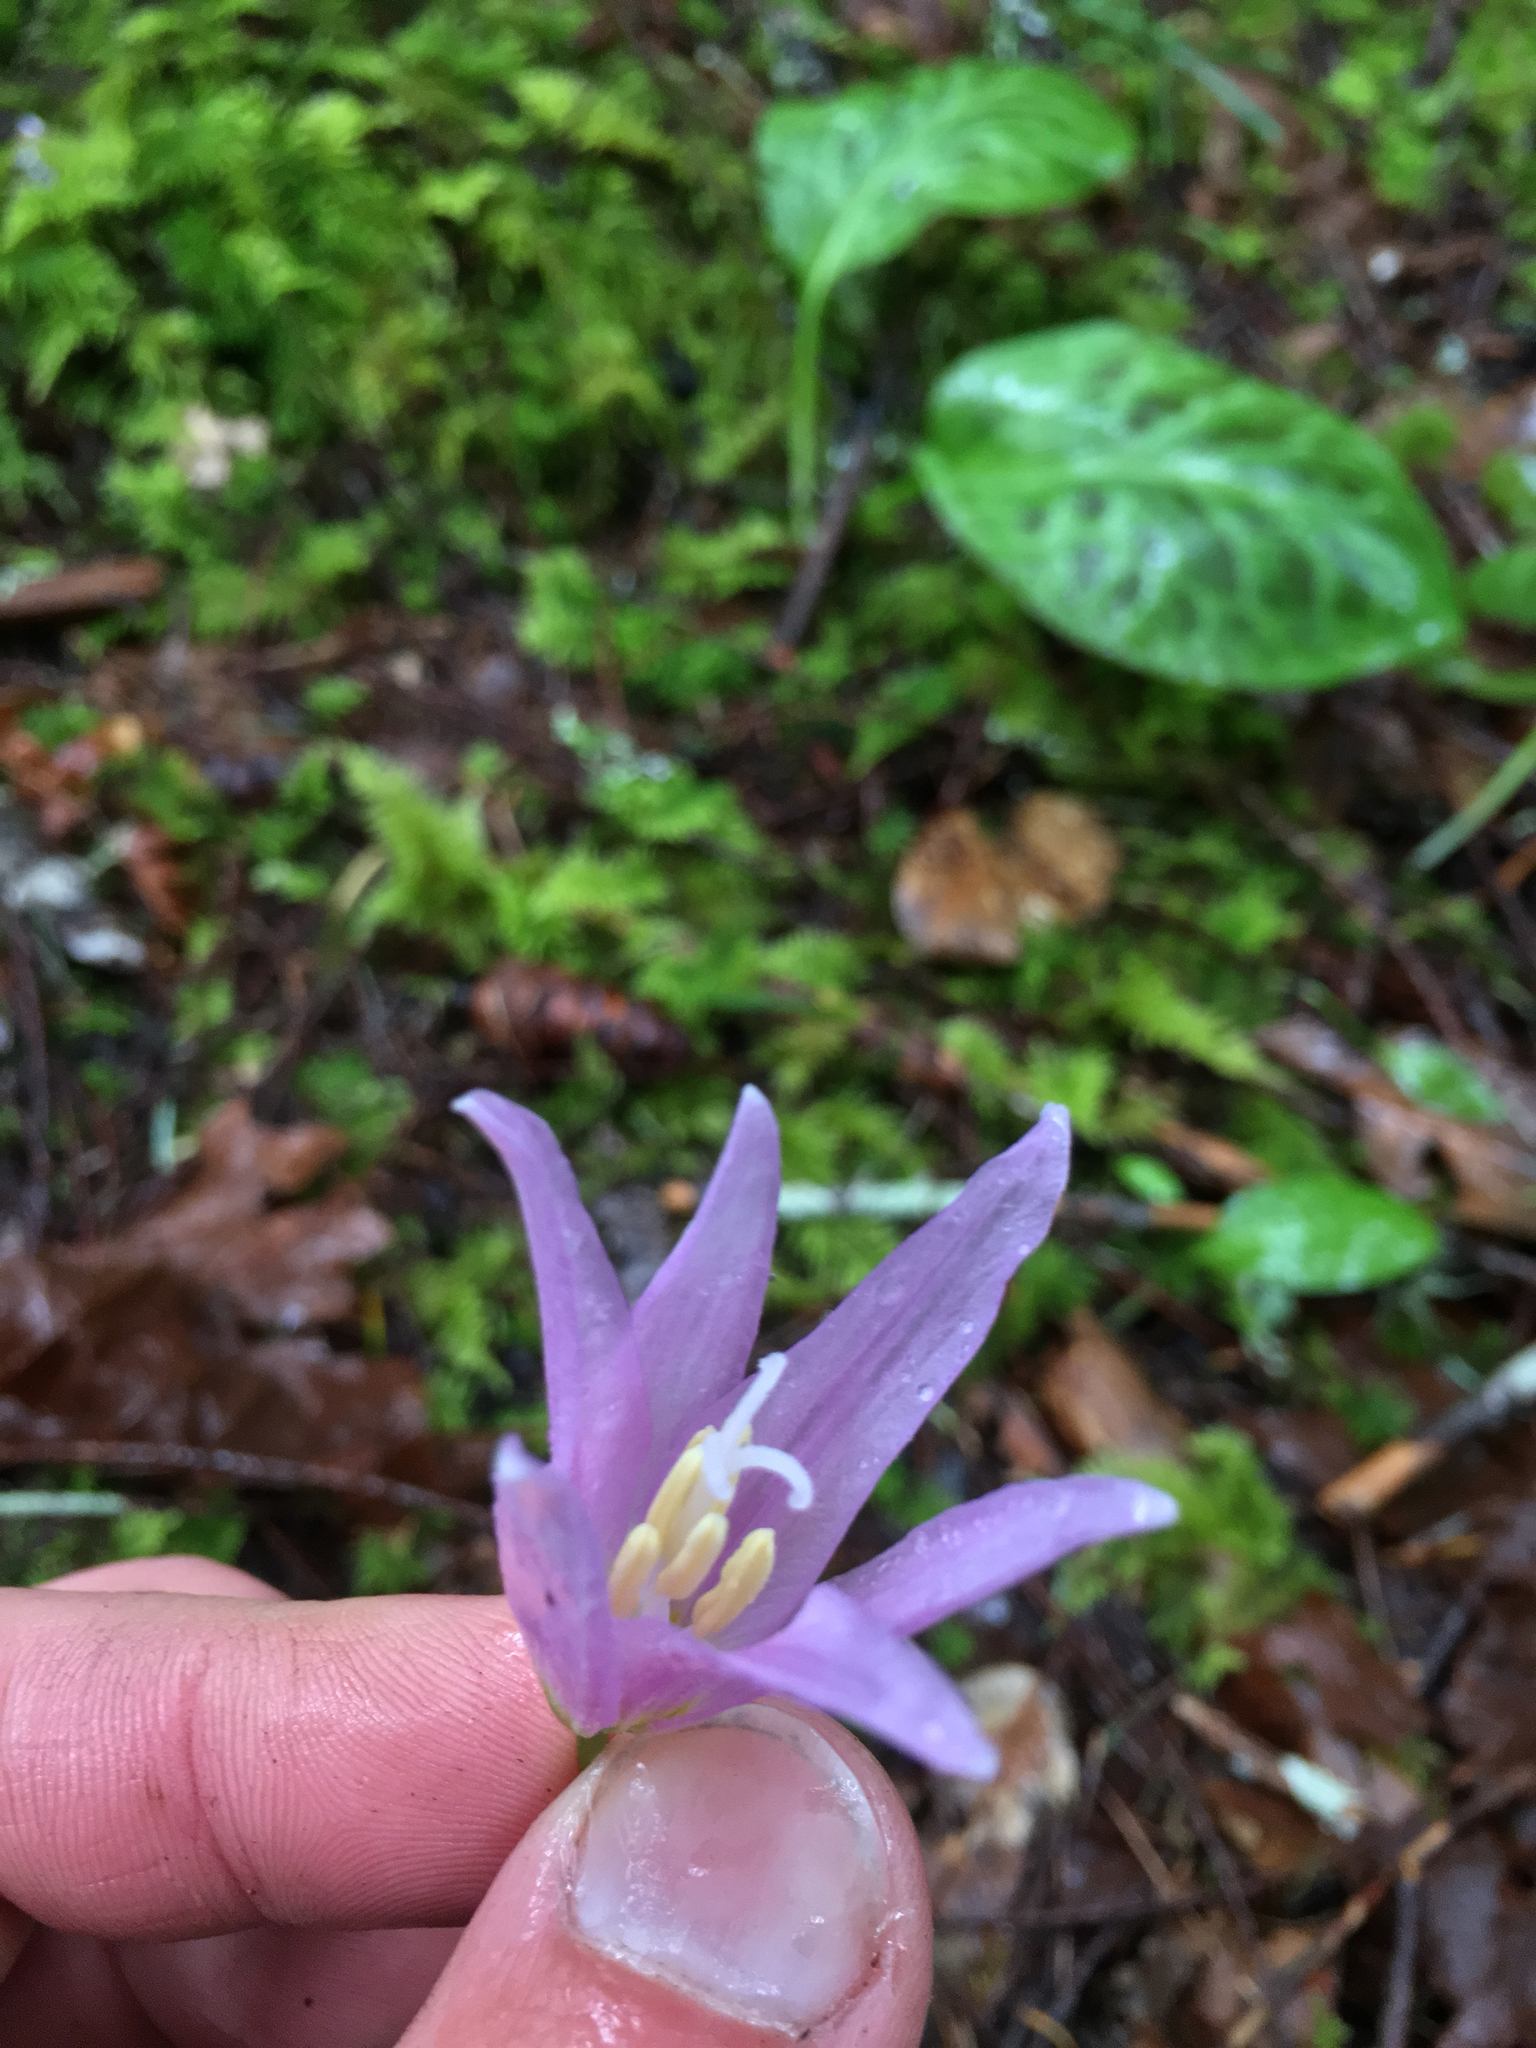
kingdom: Plantae
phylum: Tracheophyta
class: Liliopsida
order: Liliales
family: Liliaceae
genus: Erythronium
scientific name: Erythronium revolutum
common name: Pink fawn-lily
